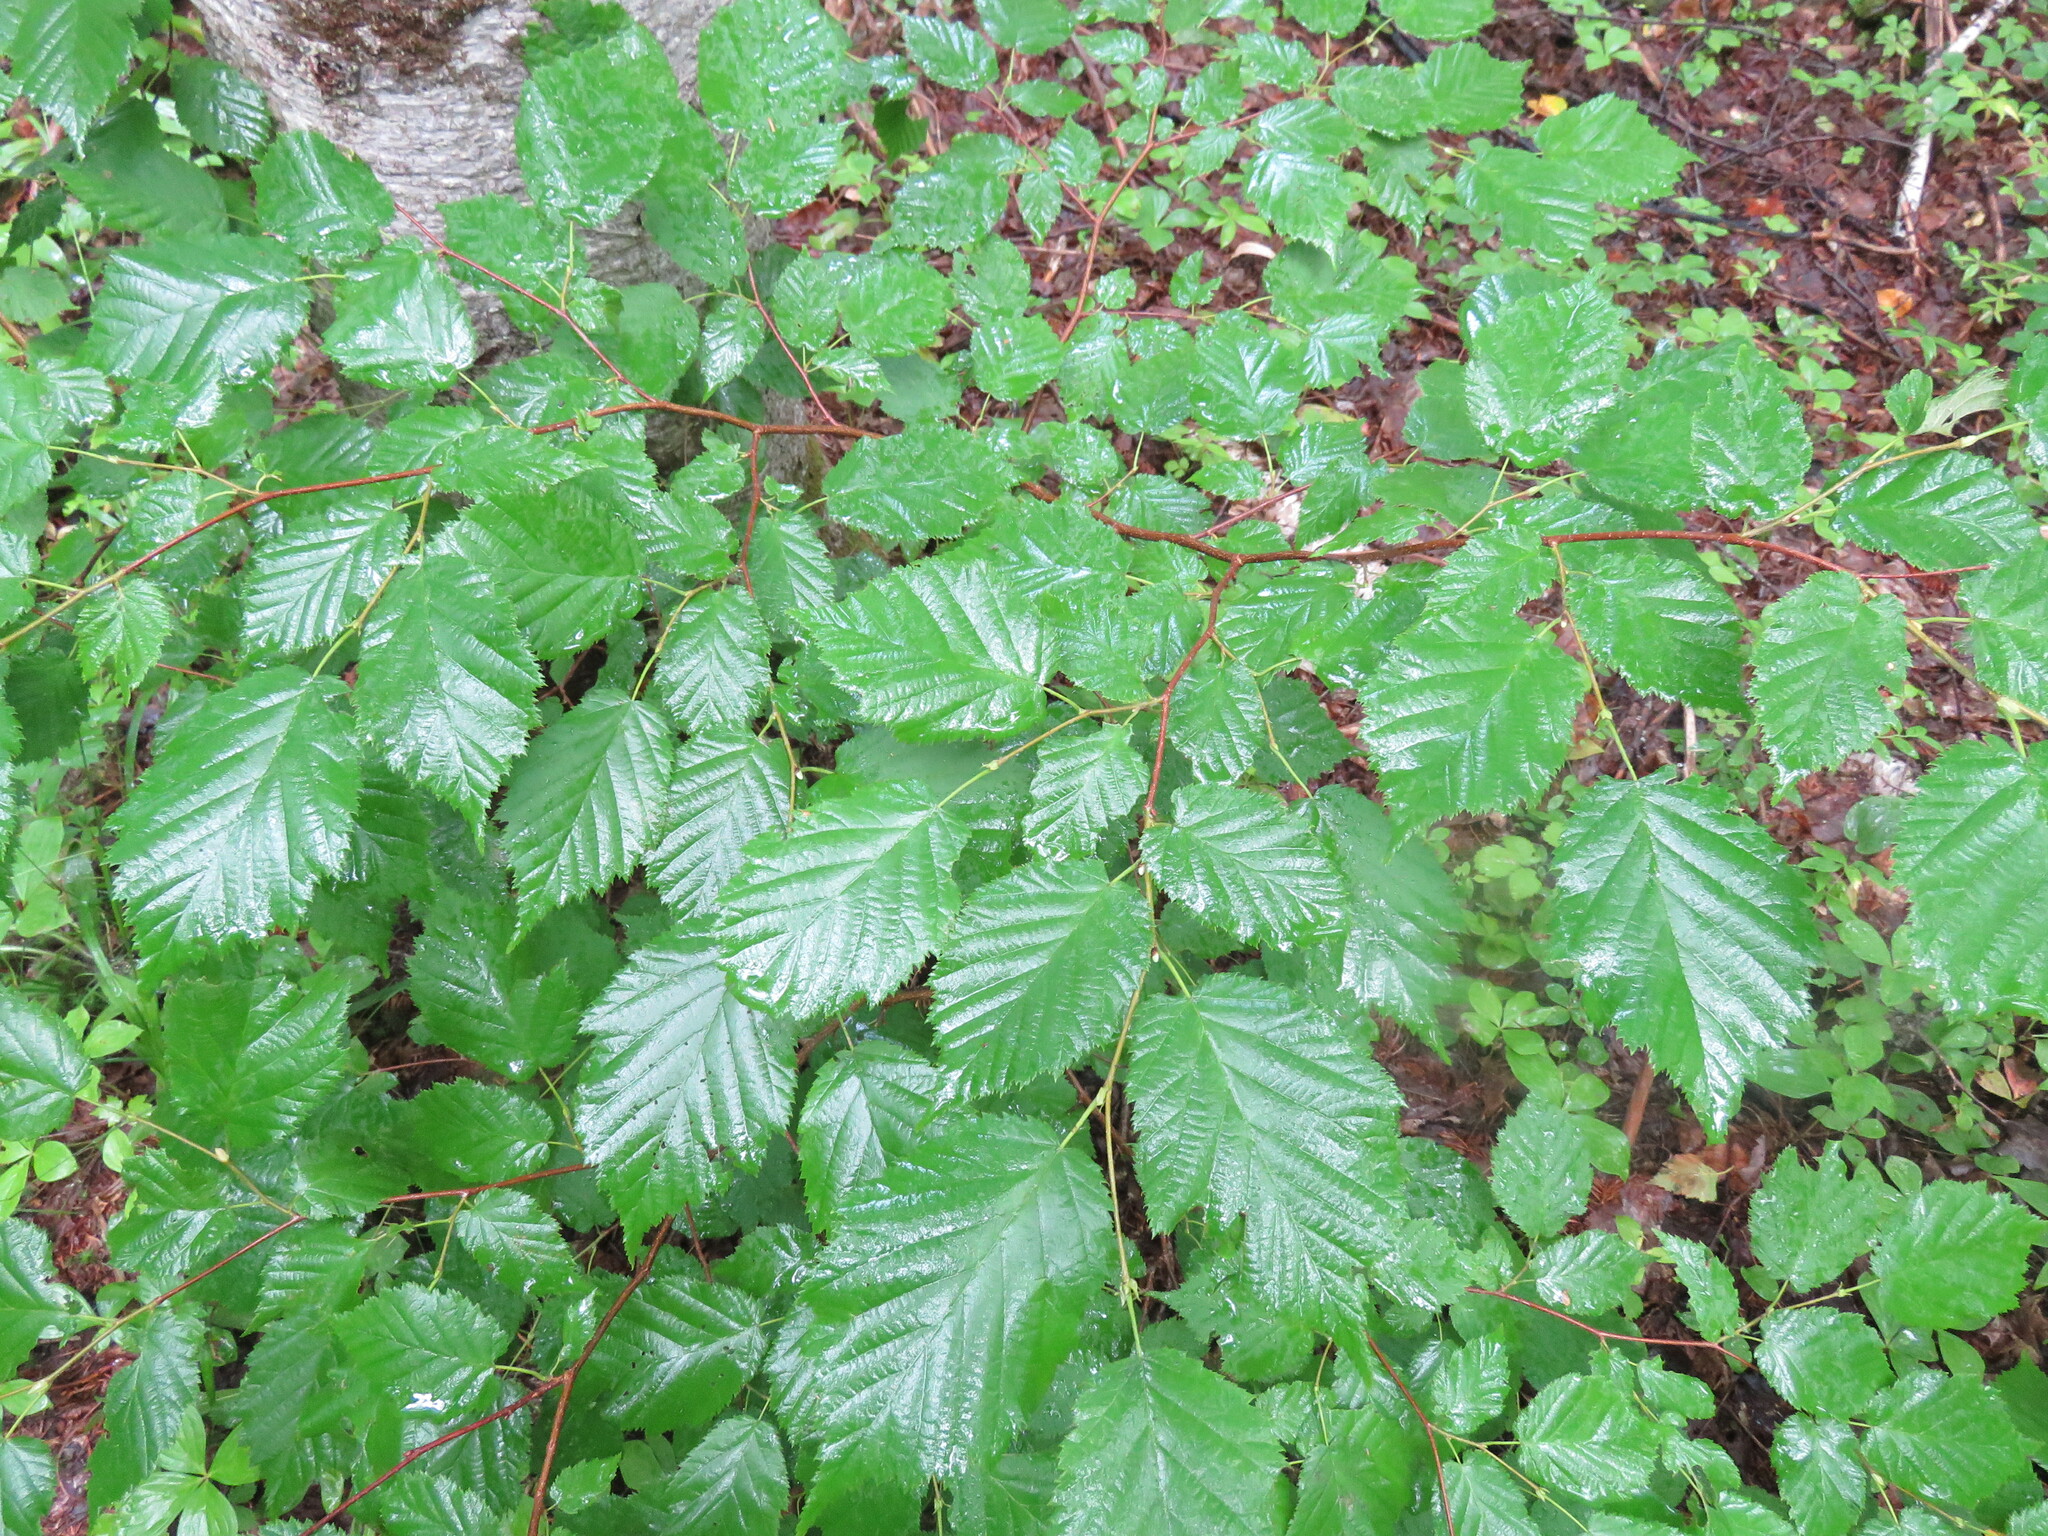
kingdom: Plantae
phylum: Tracheophyta
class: Magnoliopsida
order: Fagales
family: Betulaceae
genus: Corylus
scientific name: Corylus cornuta
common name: Beaked hazel
